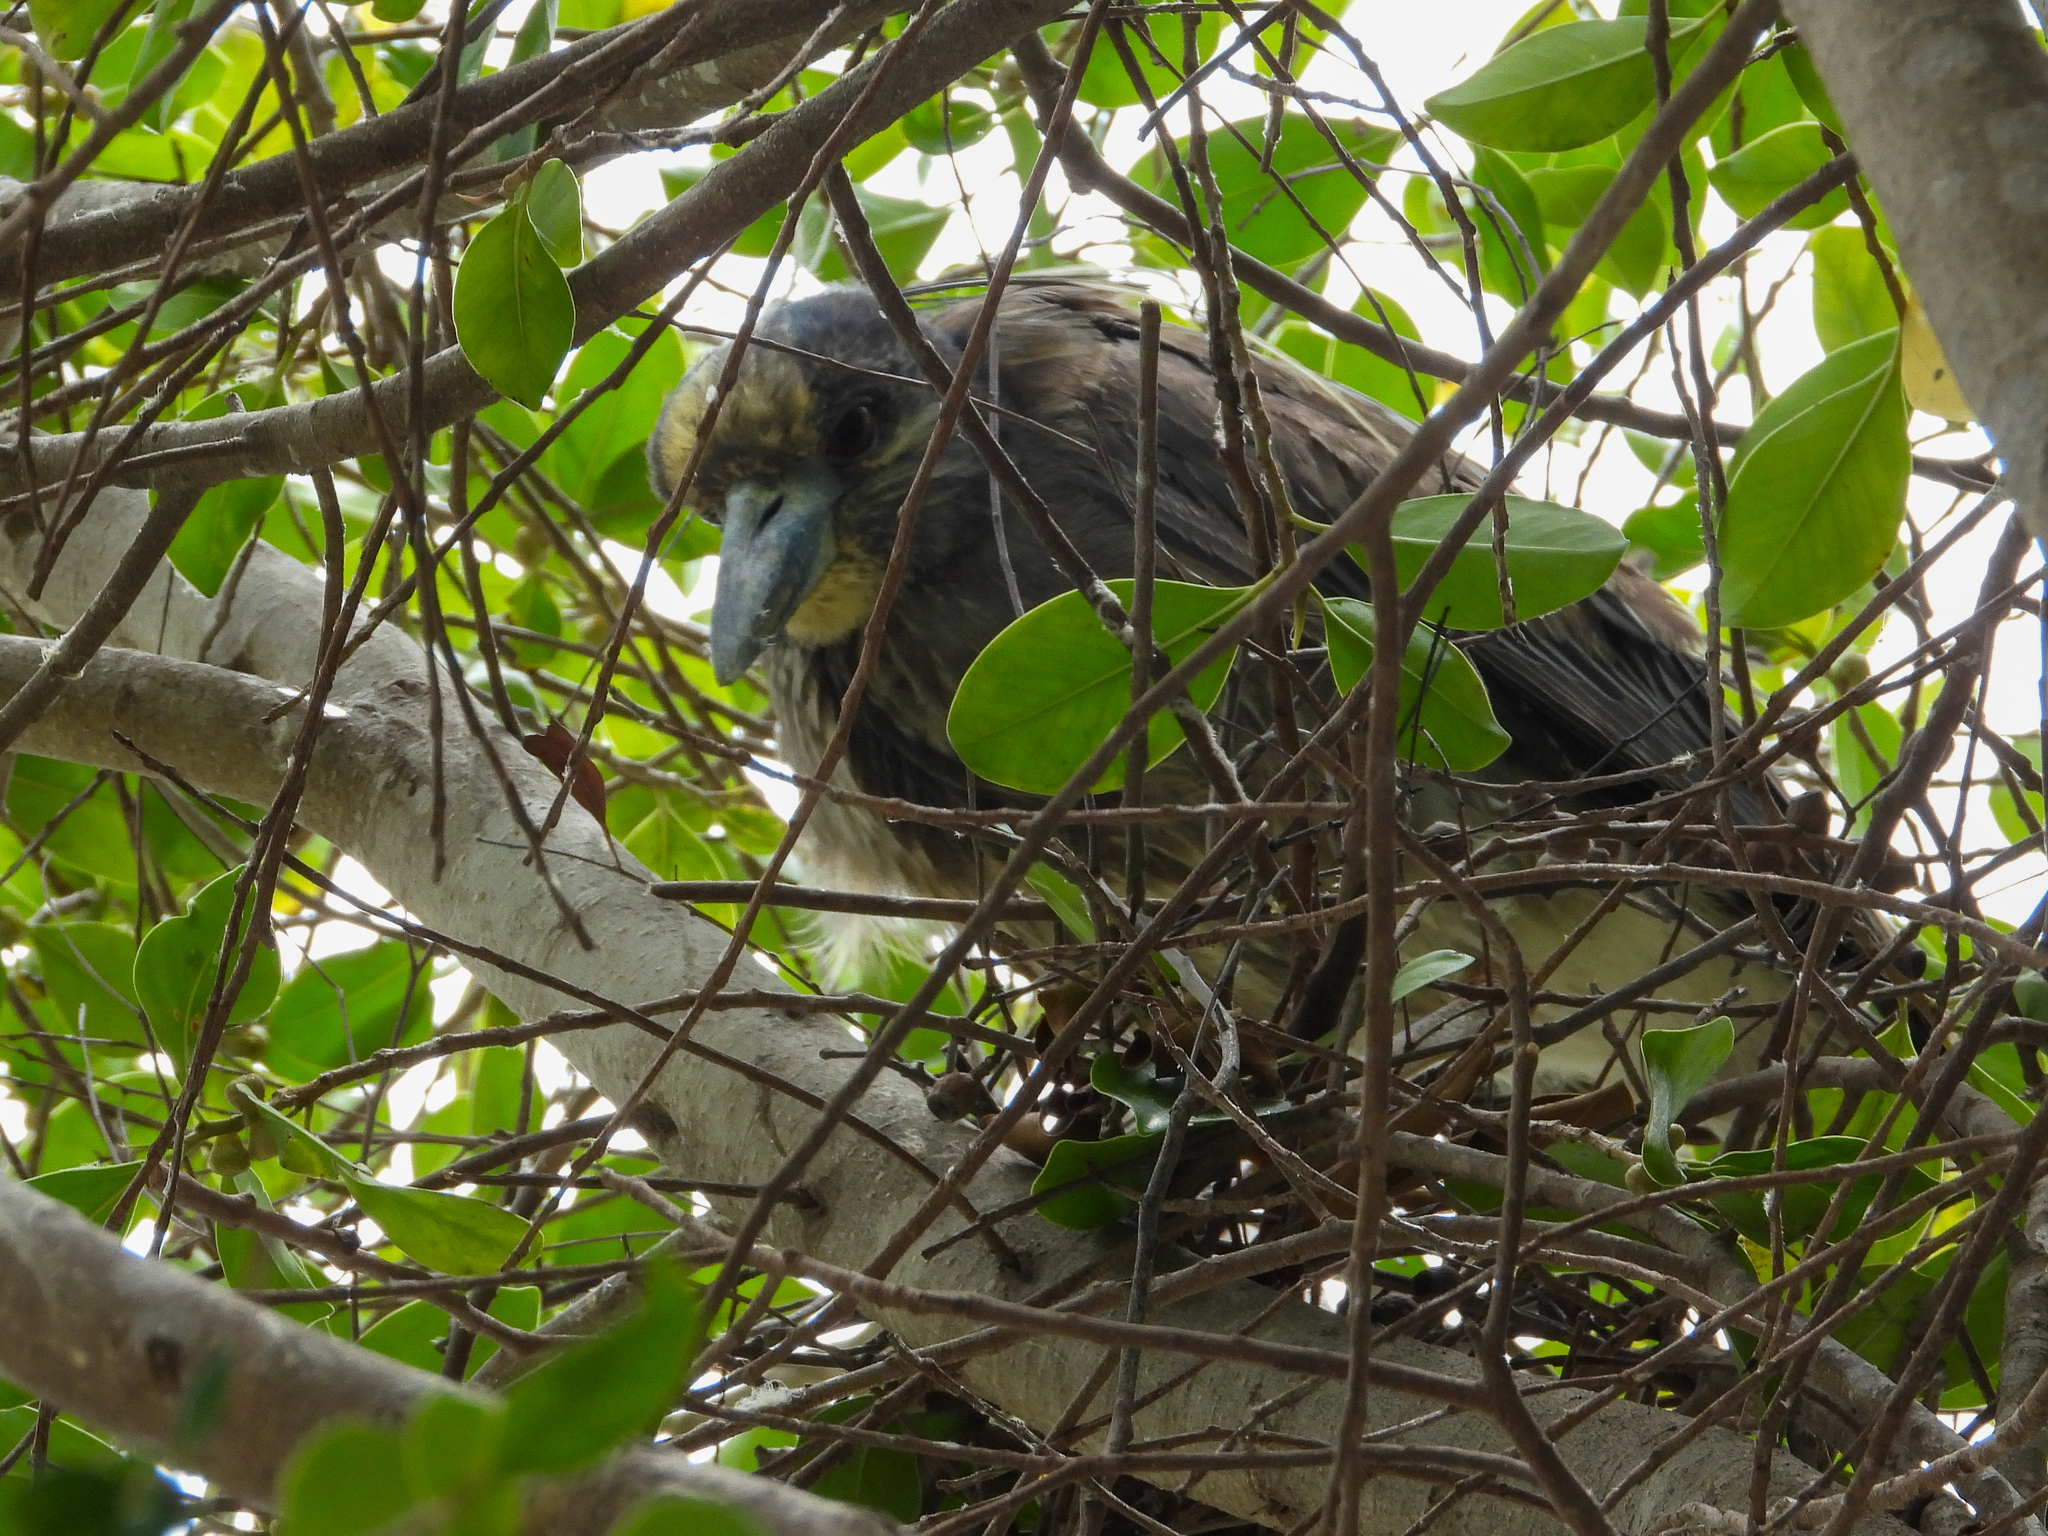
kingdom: Animalia
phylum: Chordata
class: Aves
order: Pelecaniformes
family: Ardeidae
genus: Nyctanassa
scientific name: Nyctanassa violacea
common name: Yellow-crowned night heron
